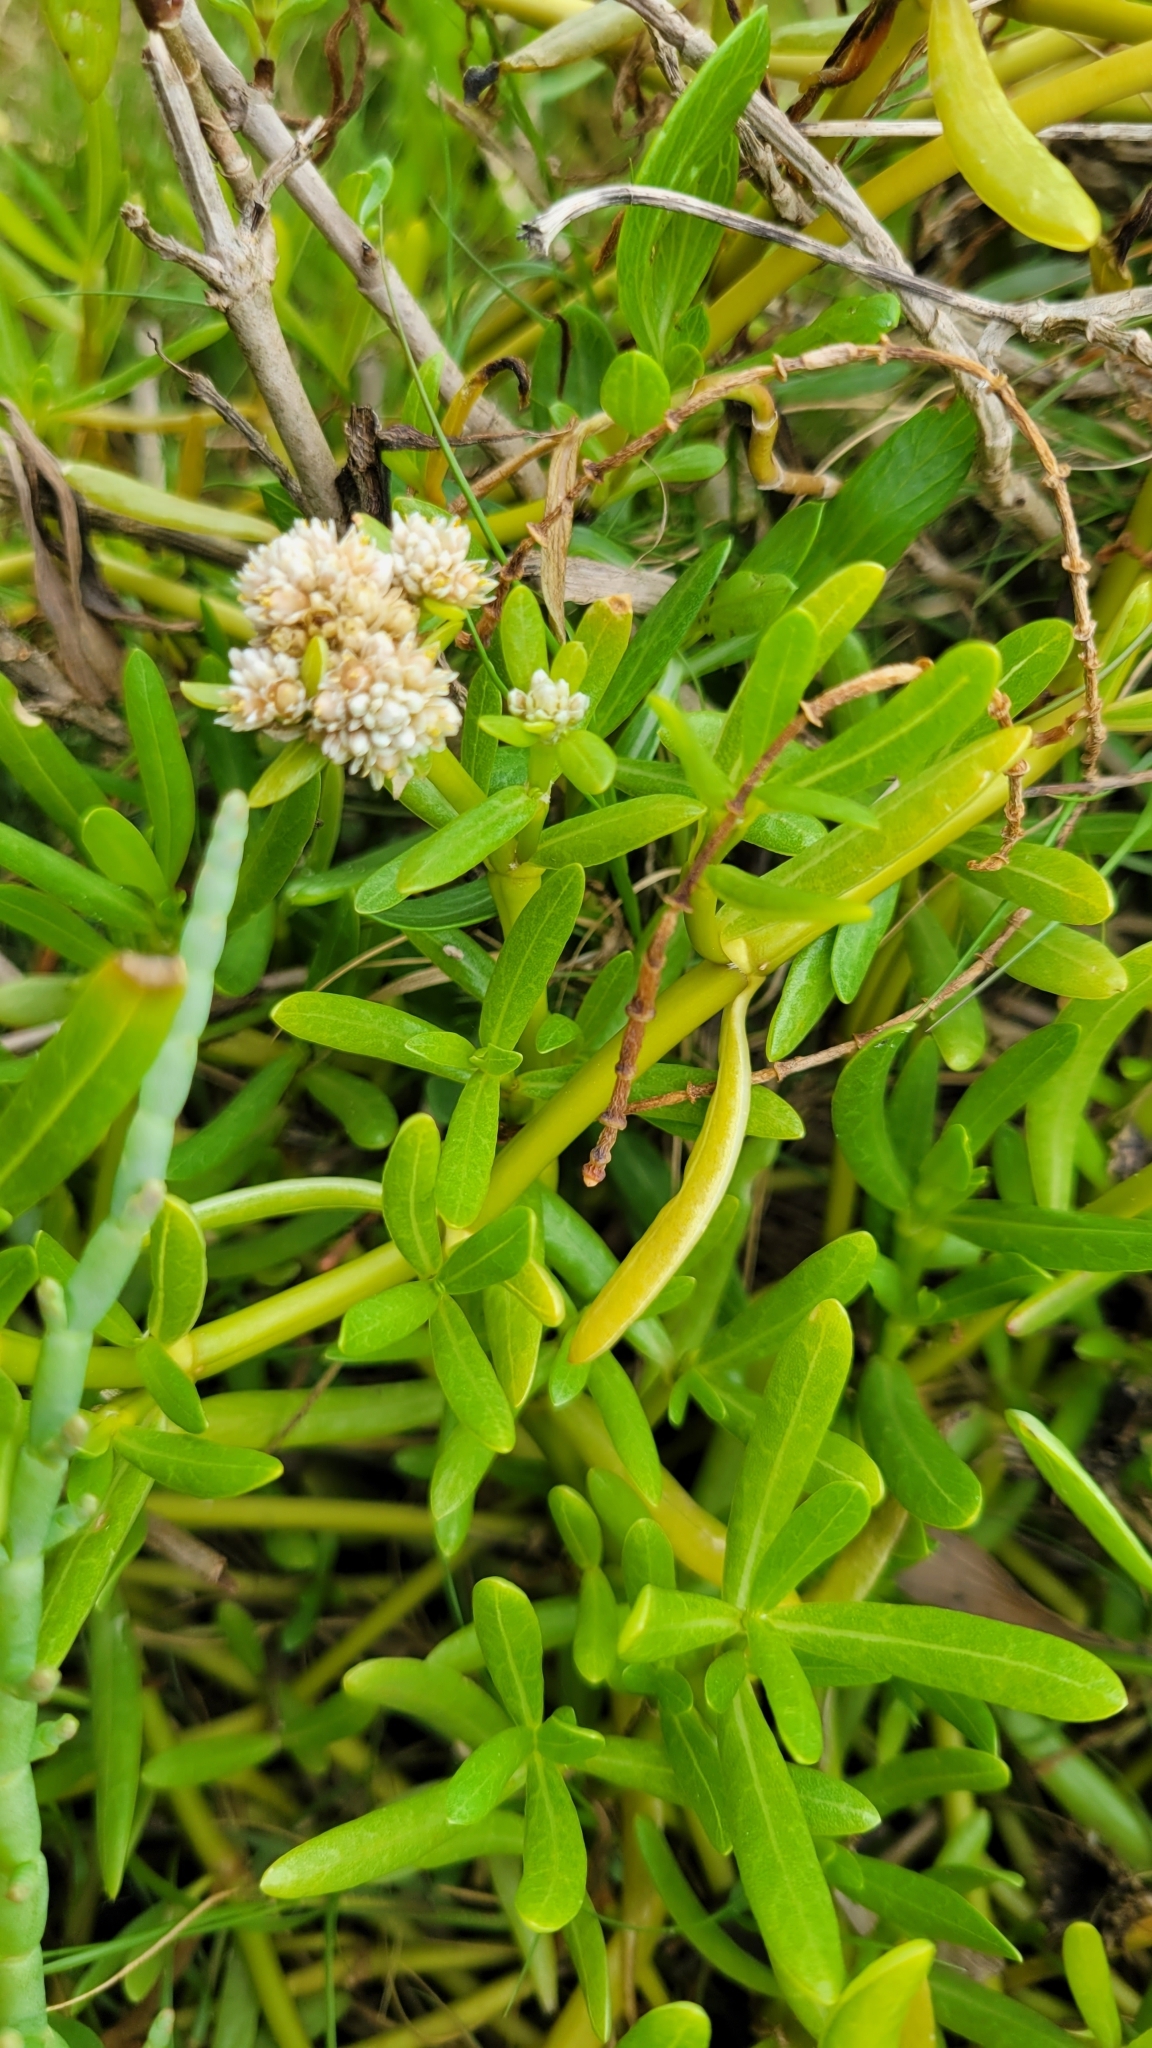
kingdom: Plantae
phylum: Tracheophyta
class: Magnoliopsida
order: Caryophyllales
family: Amaranthaceae
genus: Gomphrena
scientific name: Gomphrena vermicularis
